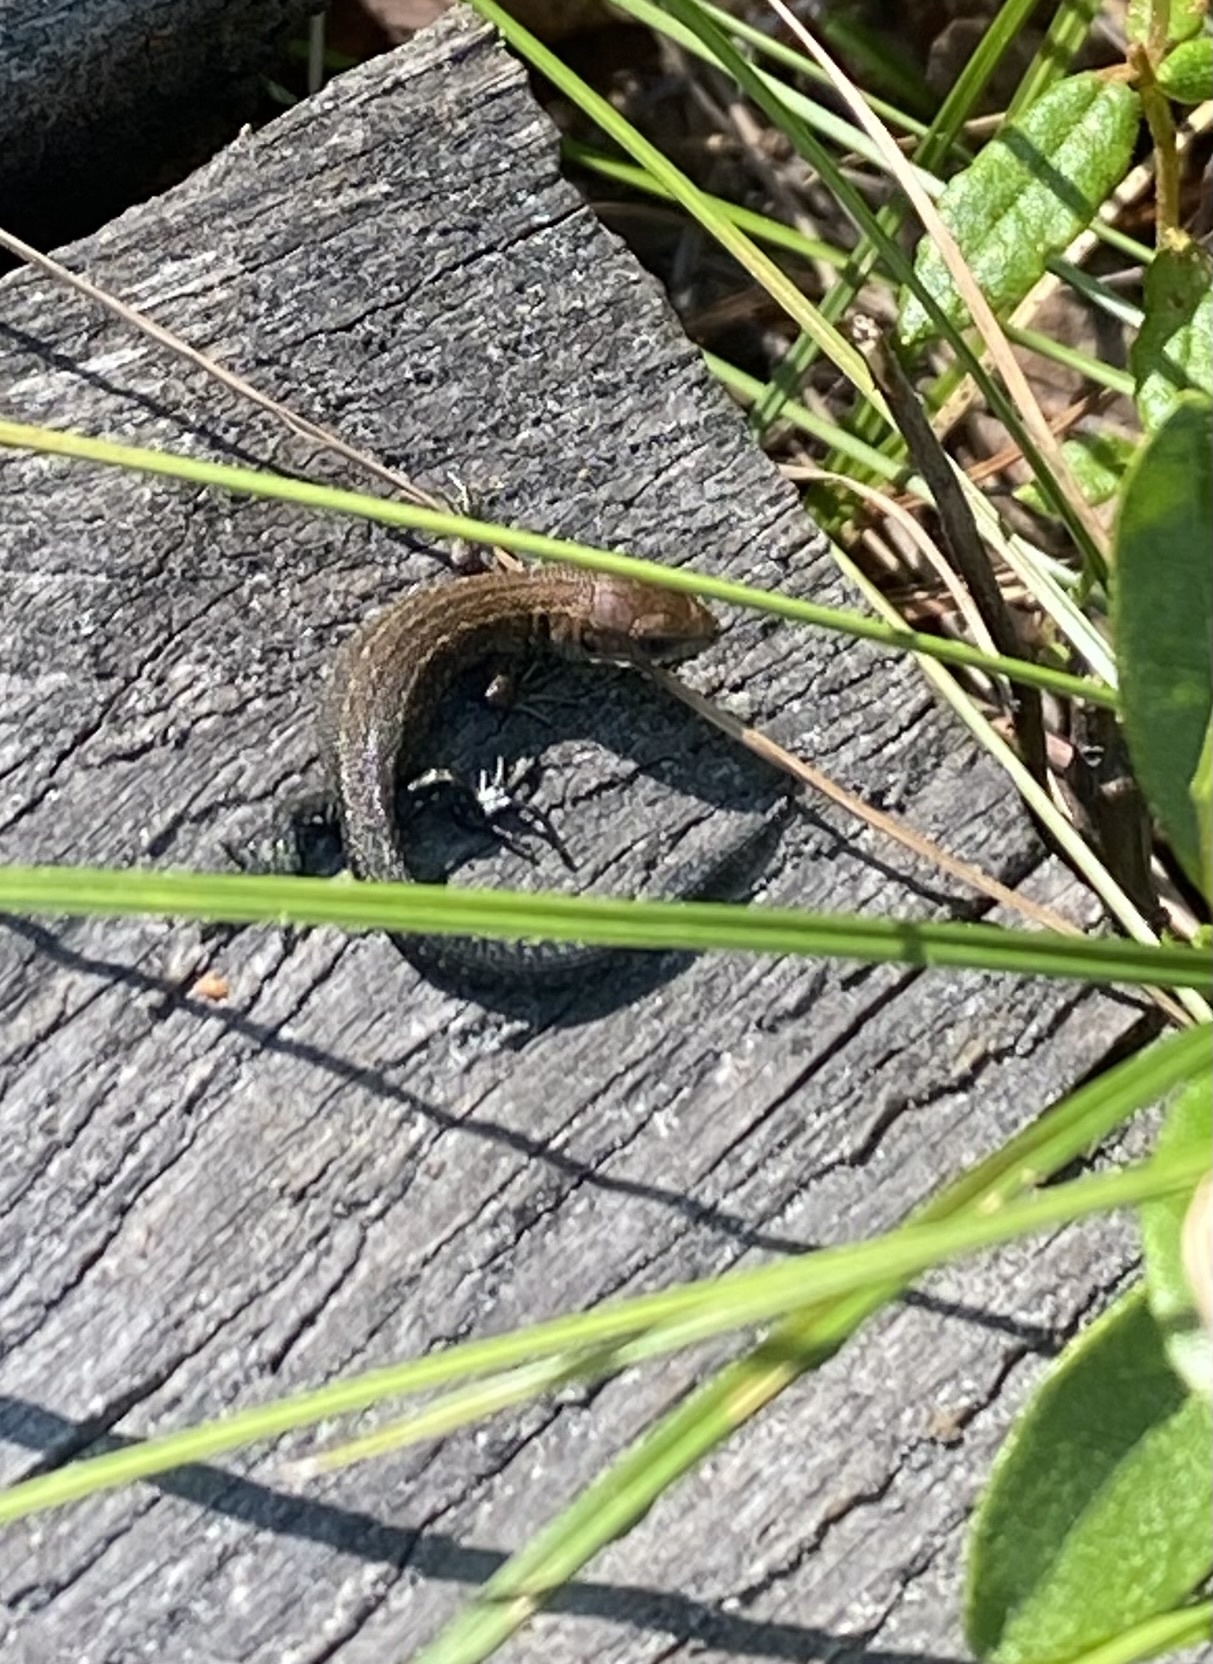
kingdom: Animalia
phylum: Chordata
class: Squamata
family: Lacertidae
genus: Zootoca
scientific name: Zootoca vivipara
